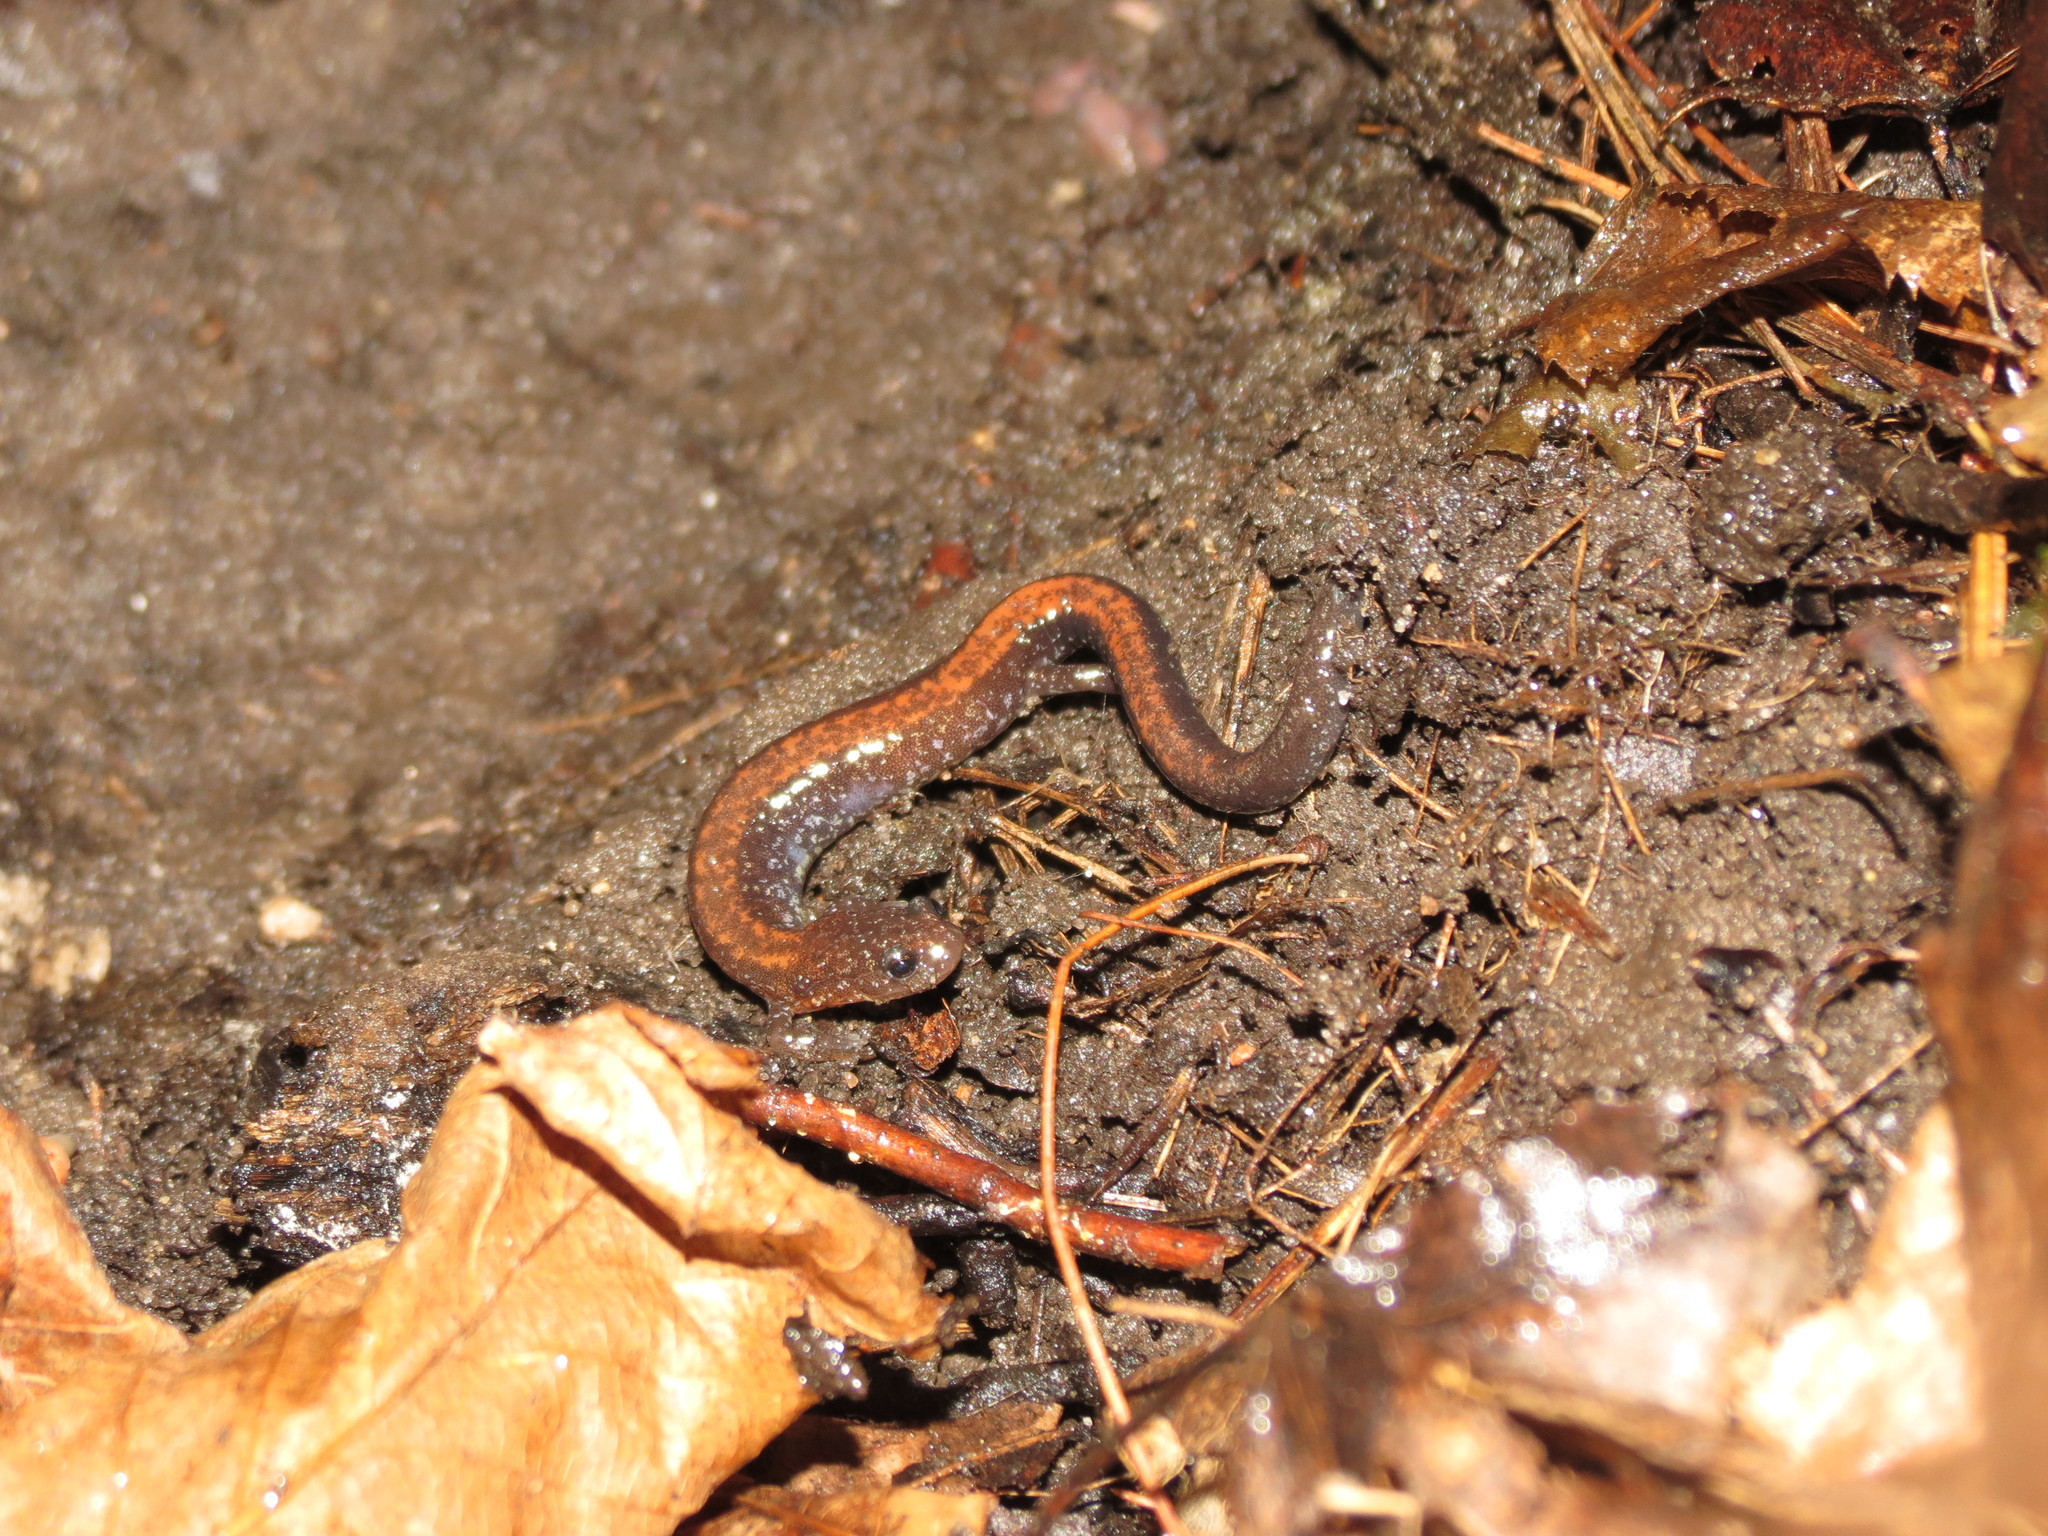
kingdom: Animalia
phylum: Chordata
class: Amphibia
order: Caudata
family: Plethodontidae
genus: Plethodon
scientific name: Plethodon cinereus
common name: Redback salamander
